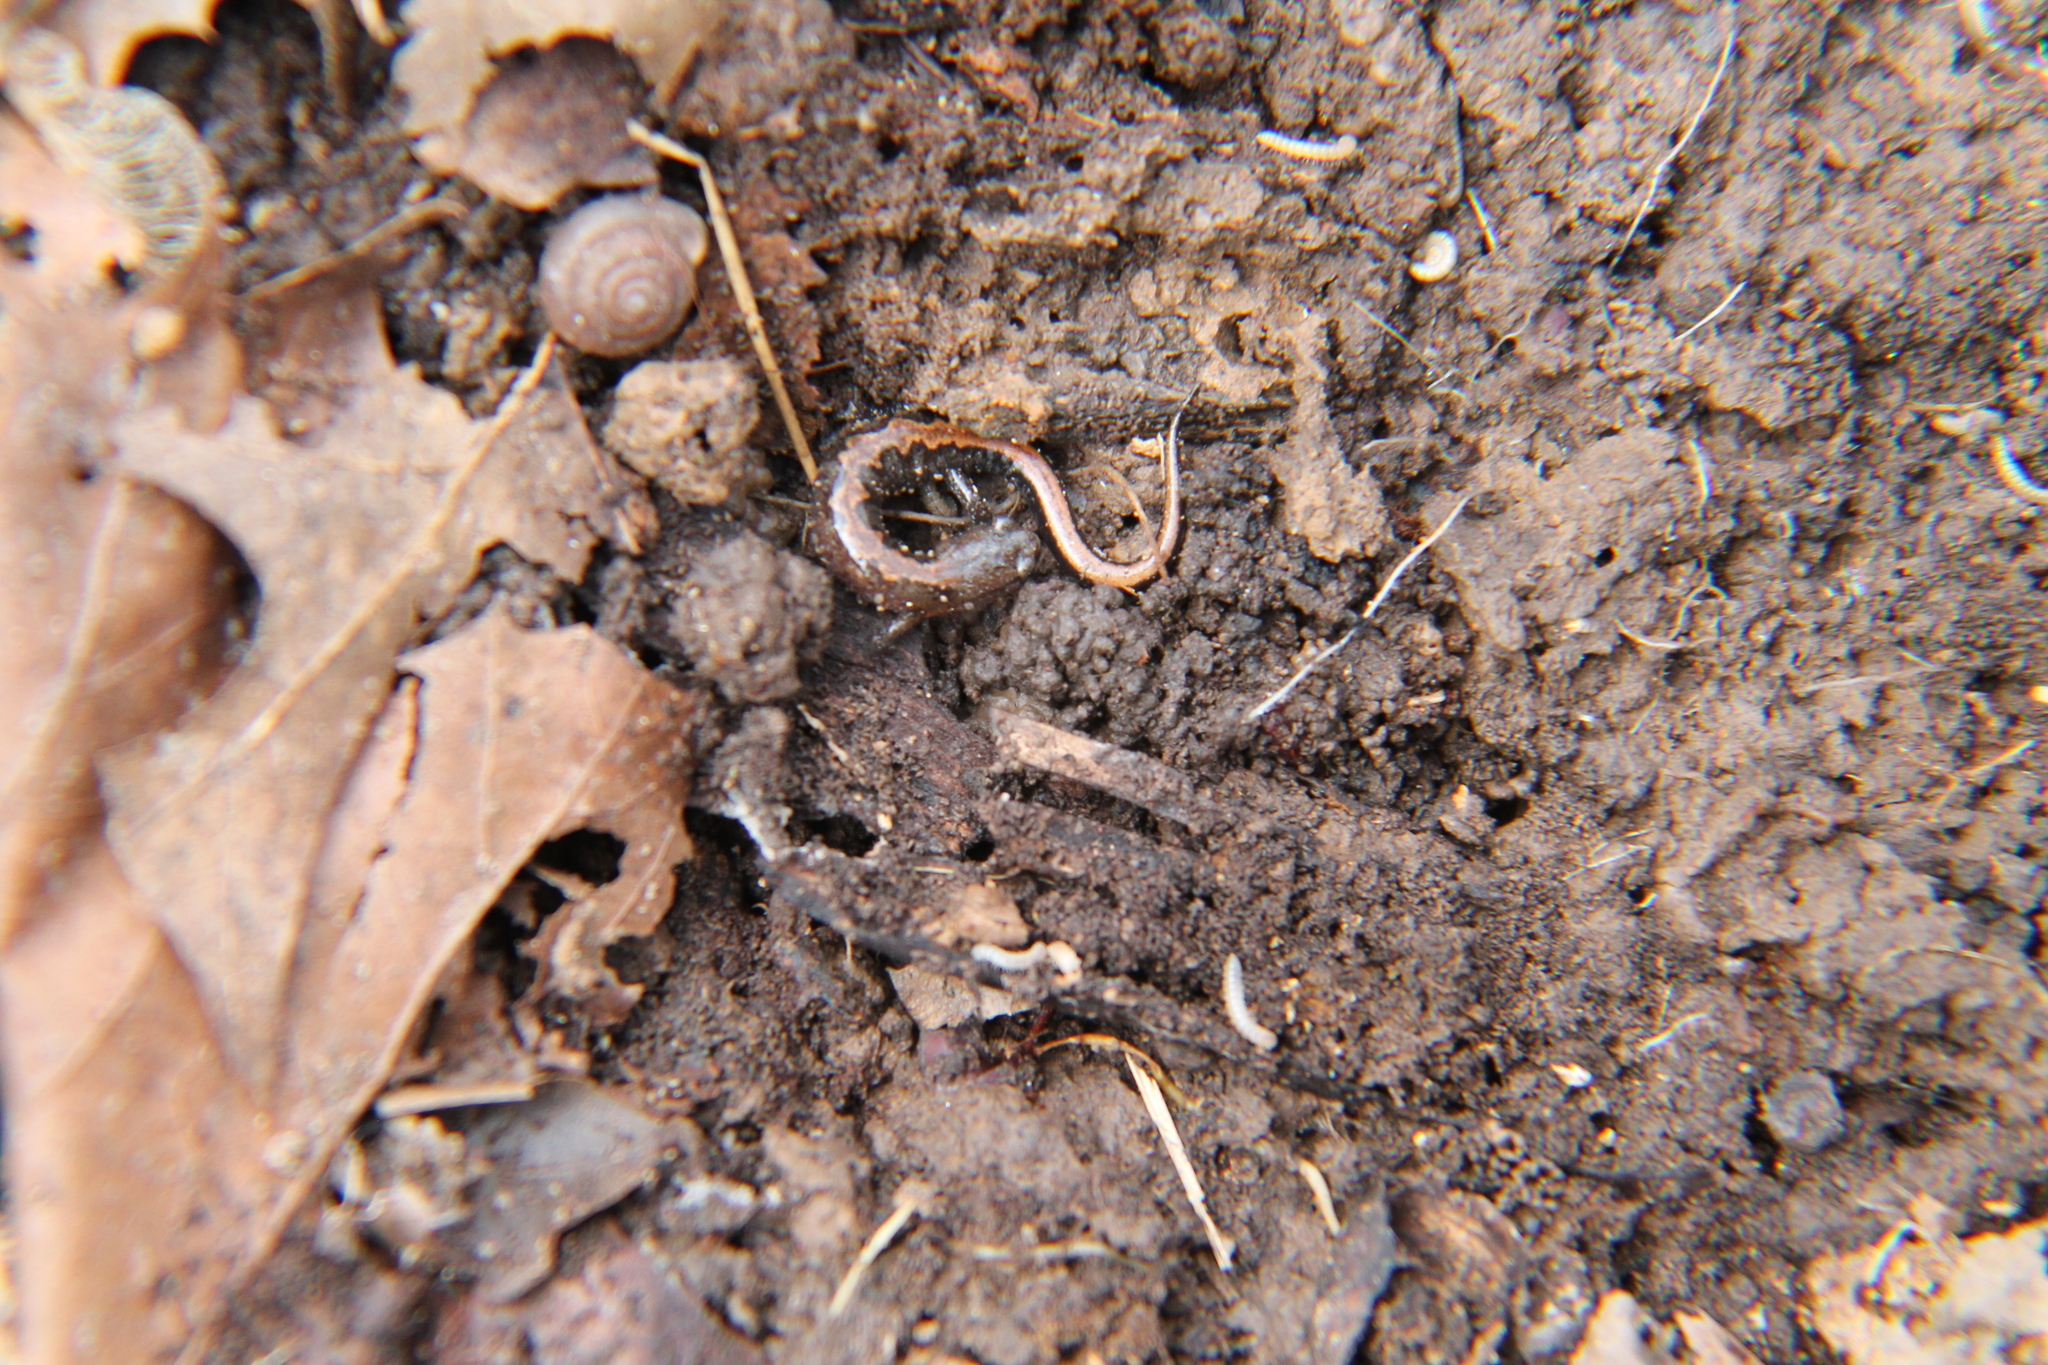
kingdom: Animalia
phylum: Chordata
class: Amphibia
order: Caudata
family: Plethodontidae
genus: Plethodon
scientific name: Plethodon dorsalis
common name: Northern zigzag salamander
